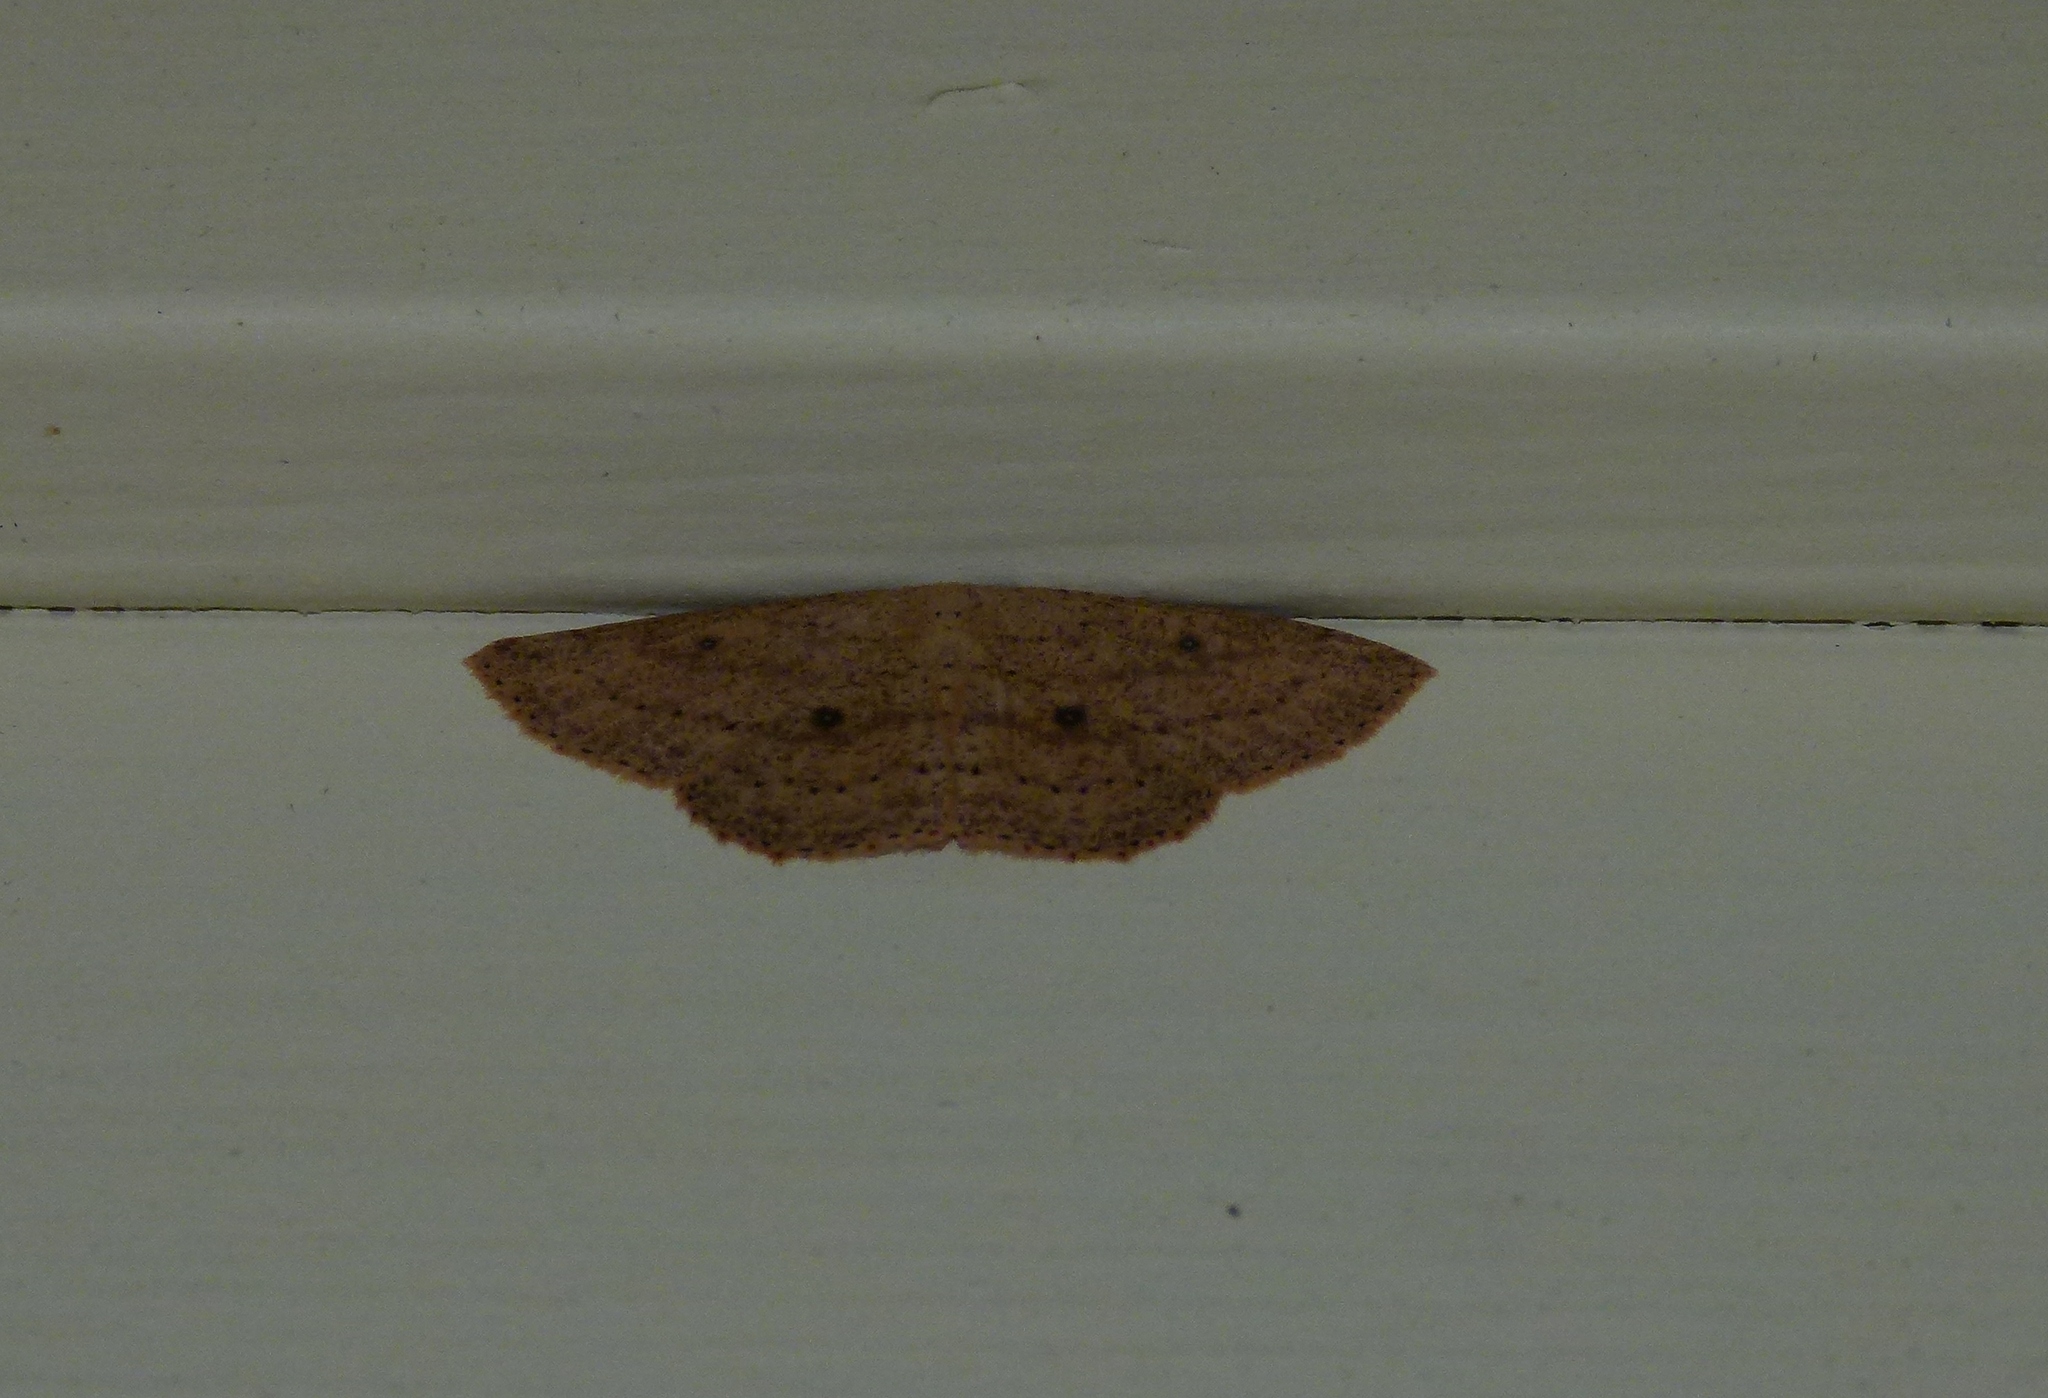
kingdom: Animalia
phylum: Arthropoda
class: Insecta
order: Lepidoptera
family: Geometridae
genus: Cyclophora
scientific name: Cyclophora myrtaria
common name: Waxmyrtle wave moth
